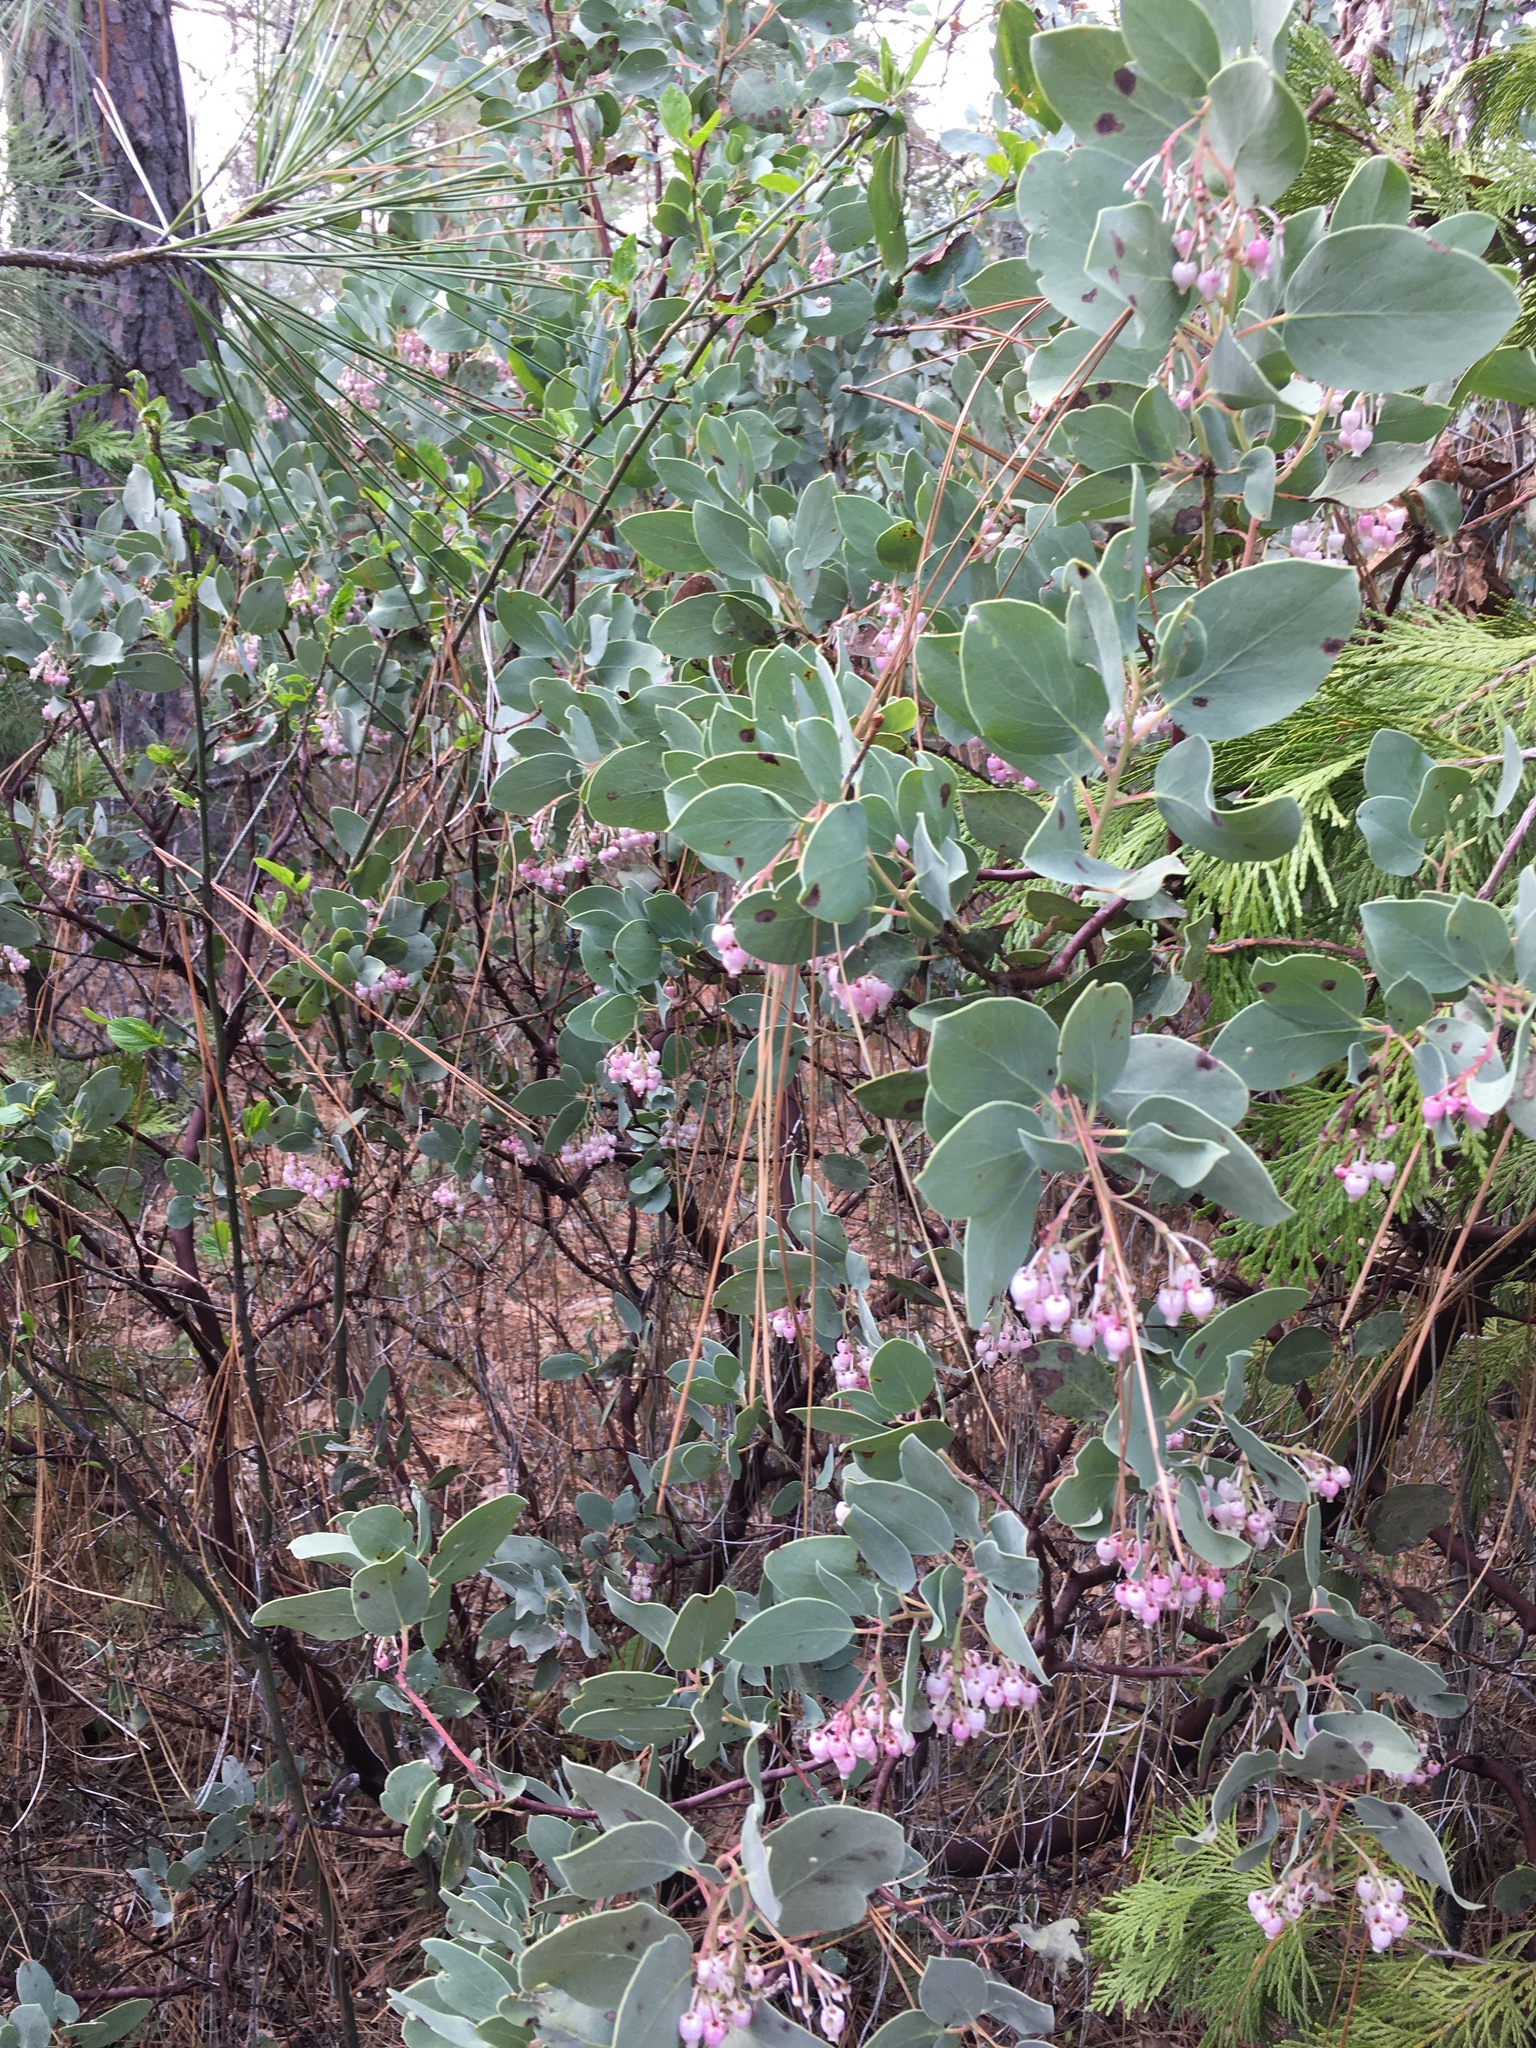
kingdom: Plantae
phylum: Tracheophyta
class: Magnoliopsida
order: Ericales
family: Ericaceae
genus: Arctostaphylos
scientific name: Arctostaphylos viscida
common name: White-leaf manzanita
